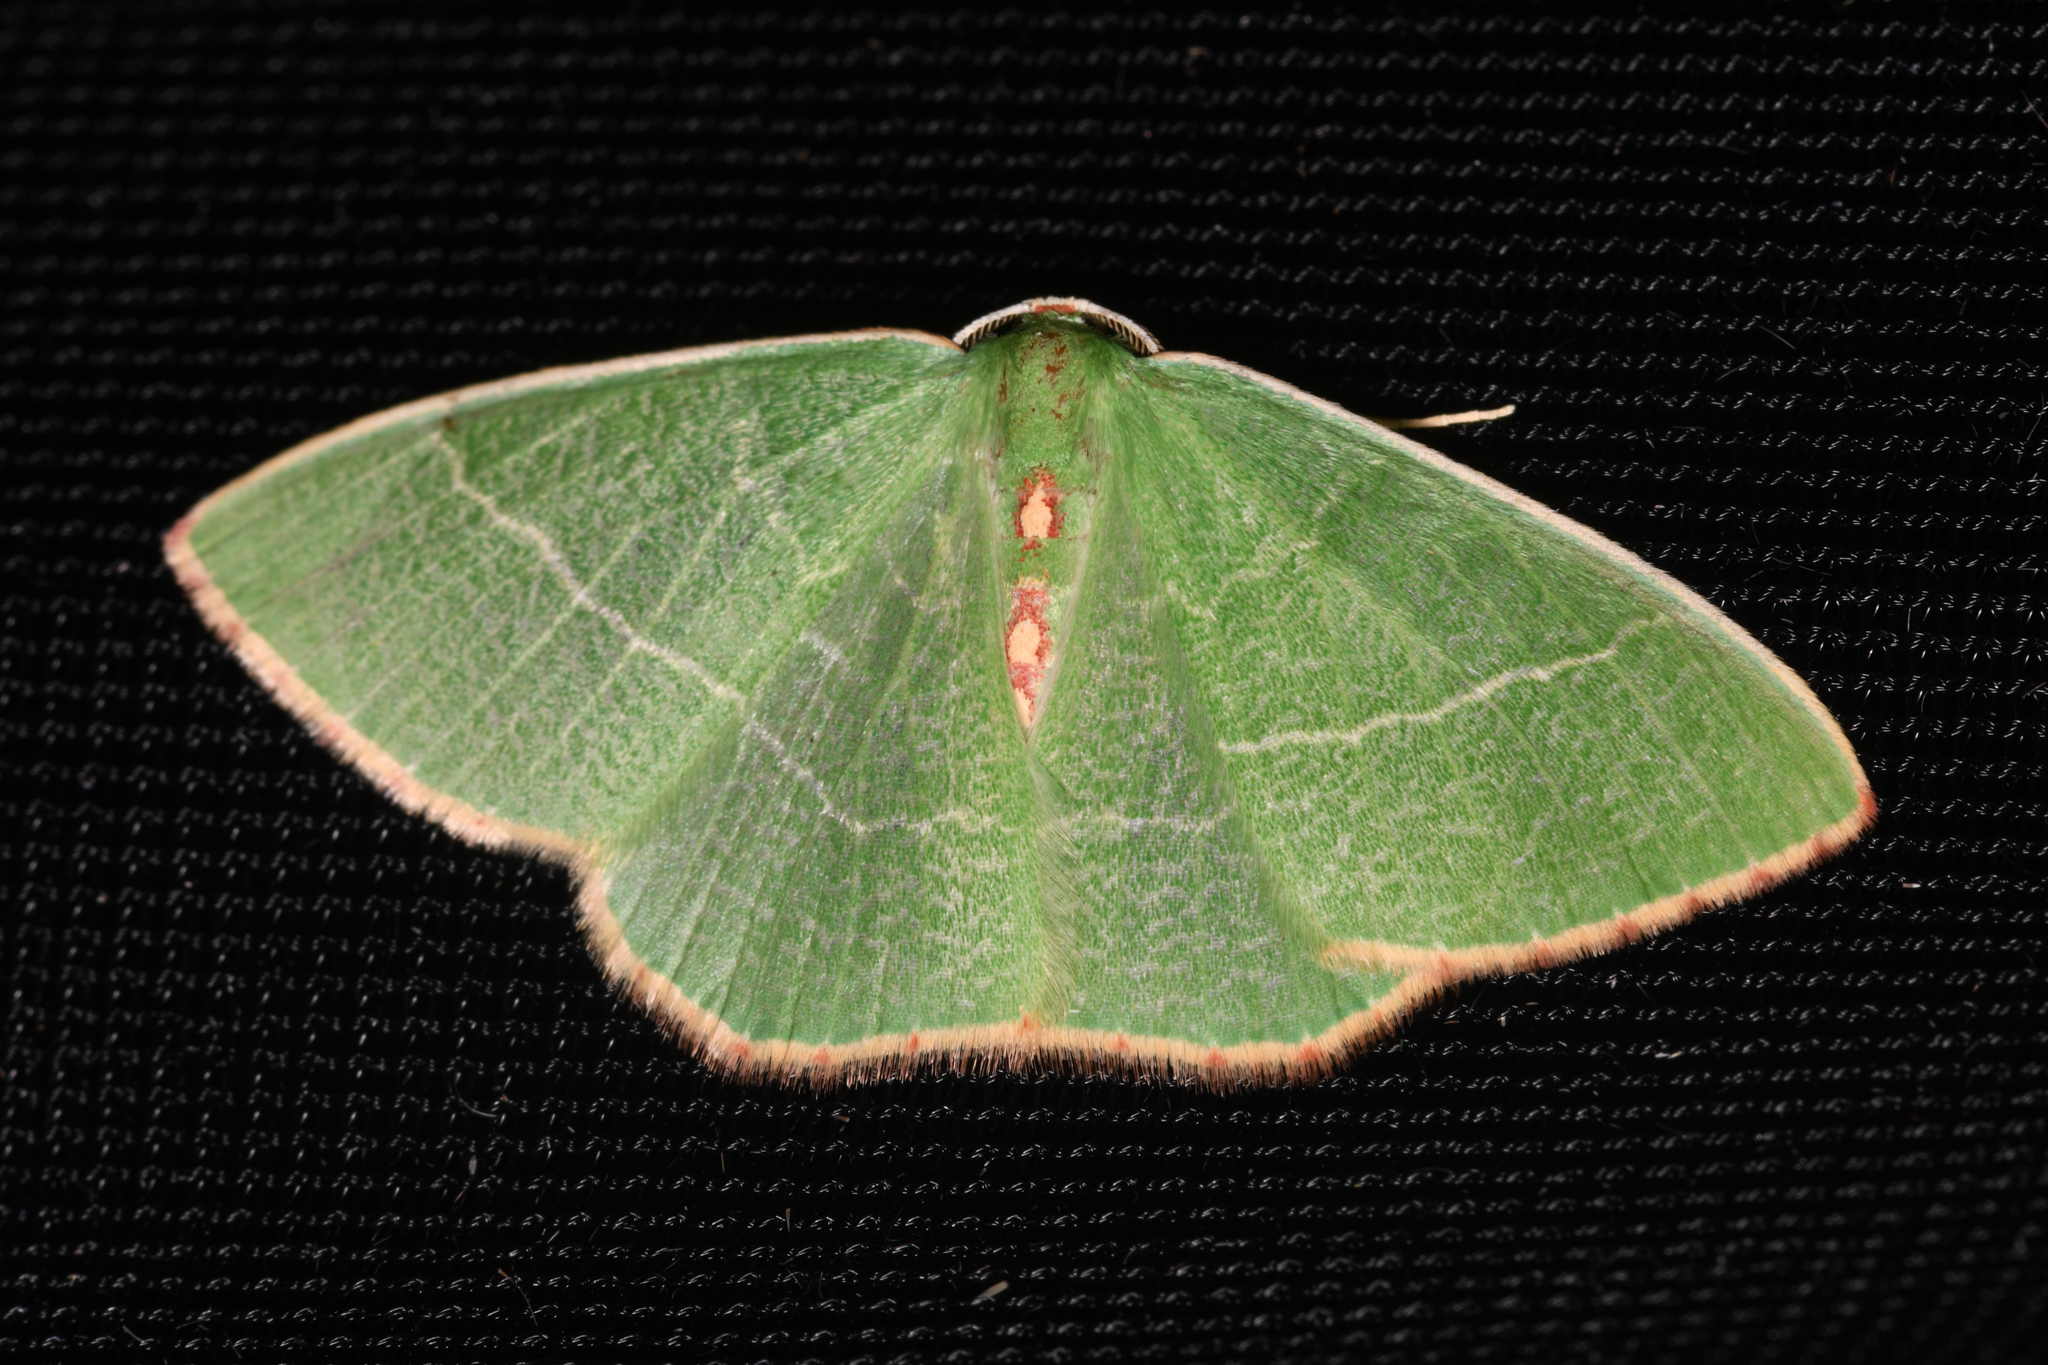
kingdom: Animalia
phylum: Arthropoda
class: Insecta
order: Lepidoptera
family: Geometridae
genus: Nemoria
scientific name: Nemoria glaucomarginaria
